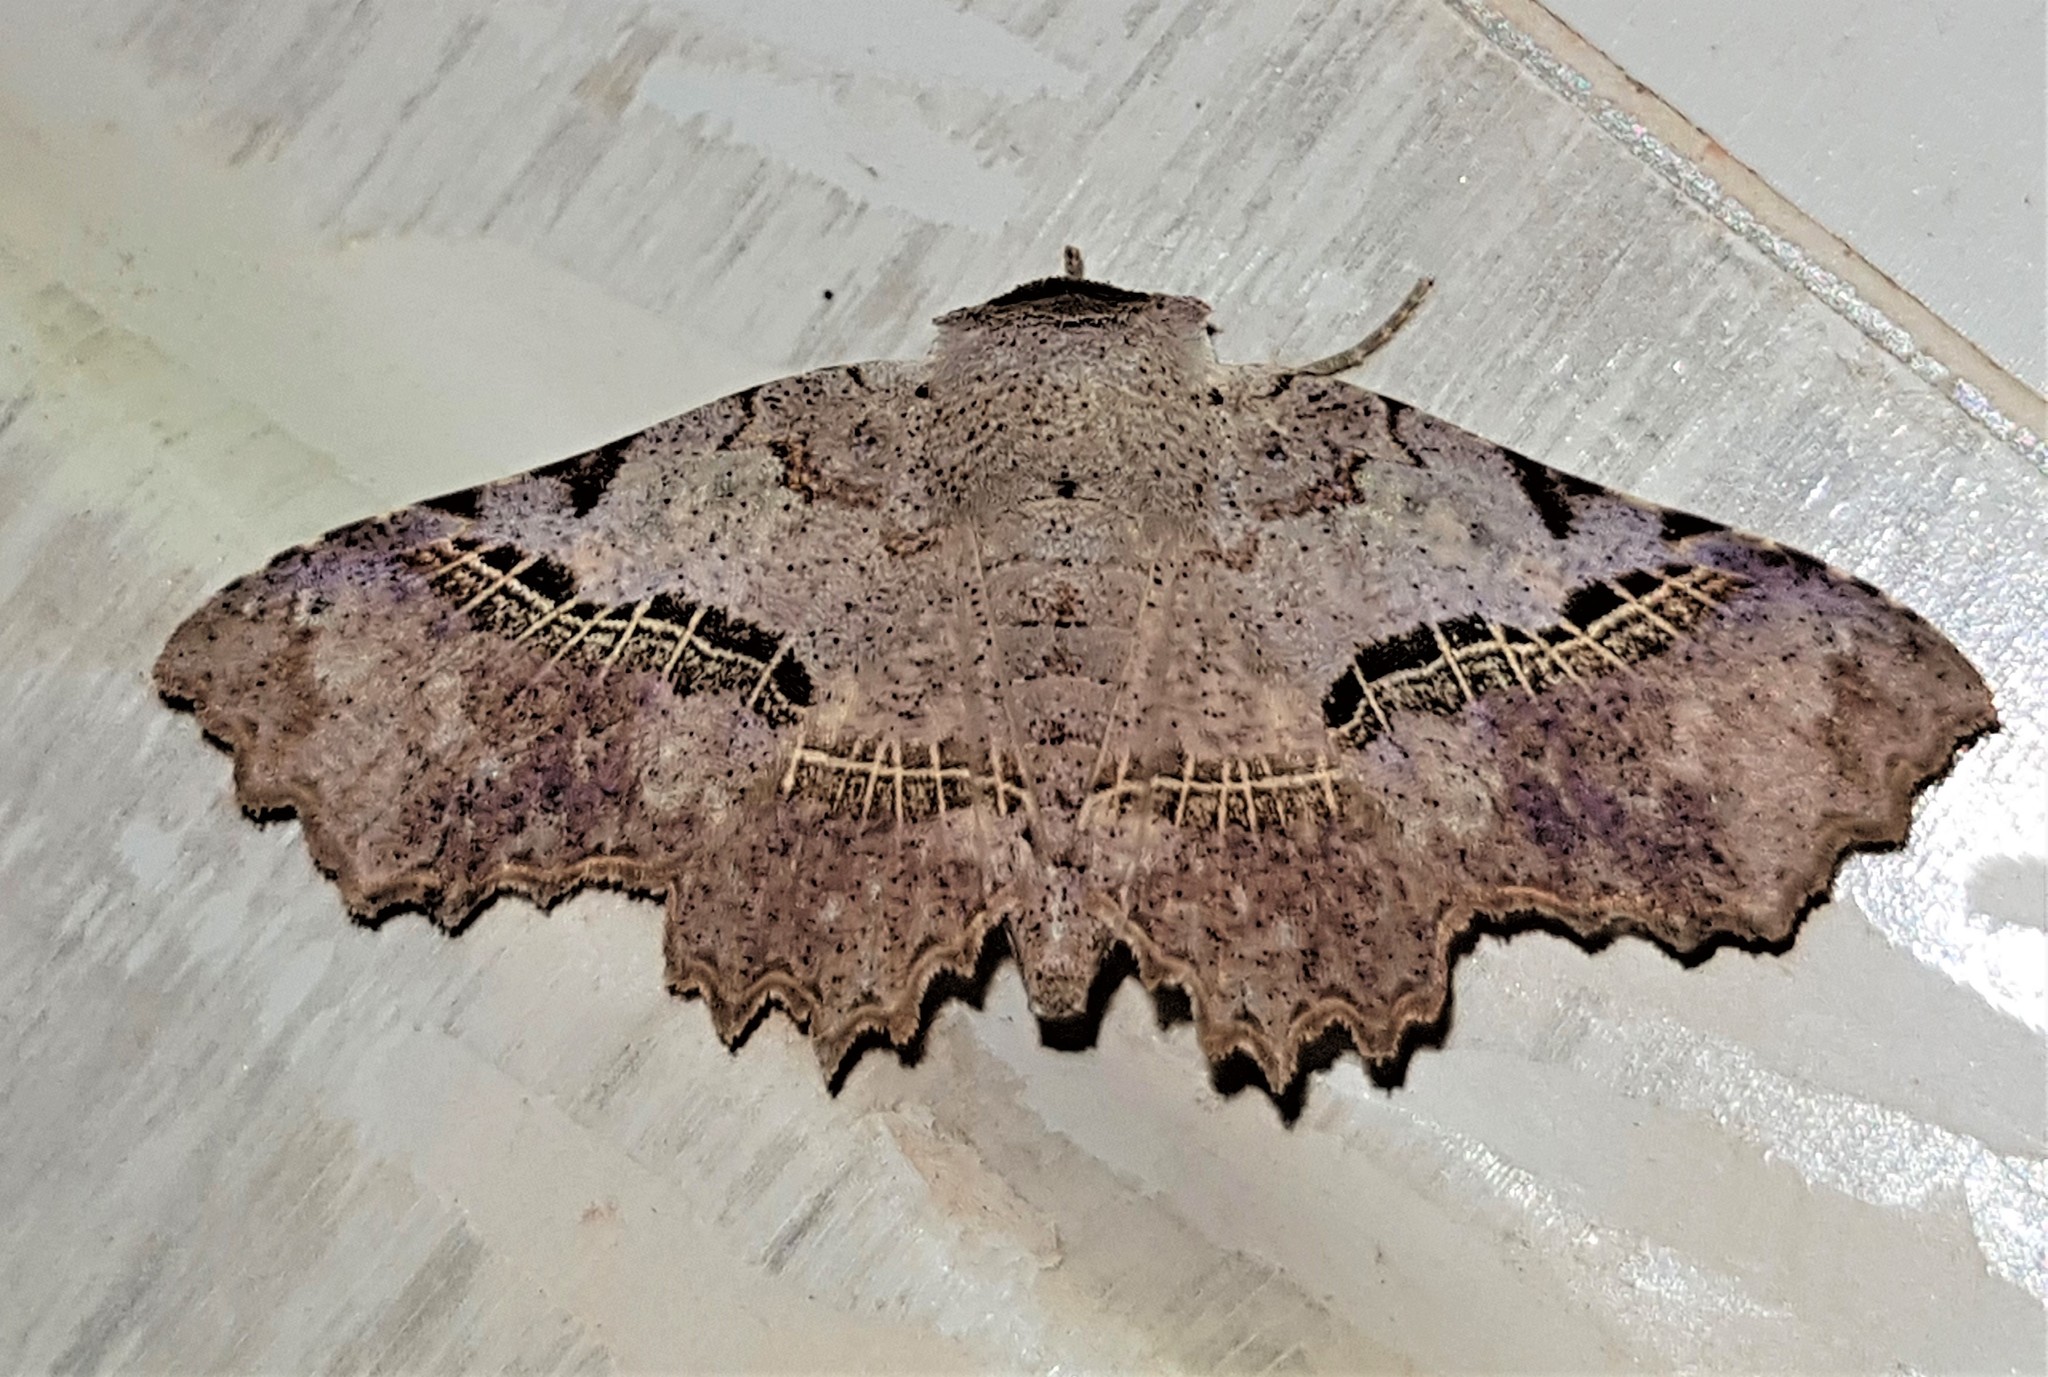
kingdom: Animalia
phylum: Arthropoda
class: Insecta
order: Lepidoptera
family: Erebidae
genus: Gonuris
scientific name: Gonuris leonnatus
